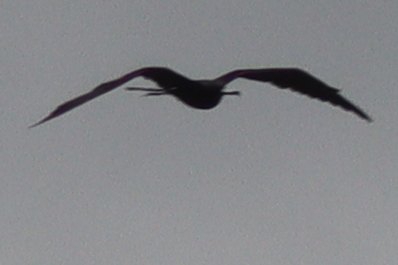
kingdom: Animalia
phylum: Chordata
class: Aves
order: Suliformes
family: Fregatidae
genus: Fregata
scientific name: Fregata magnificens
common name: Magnificent frigatebird
